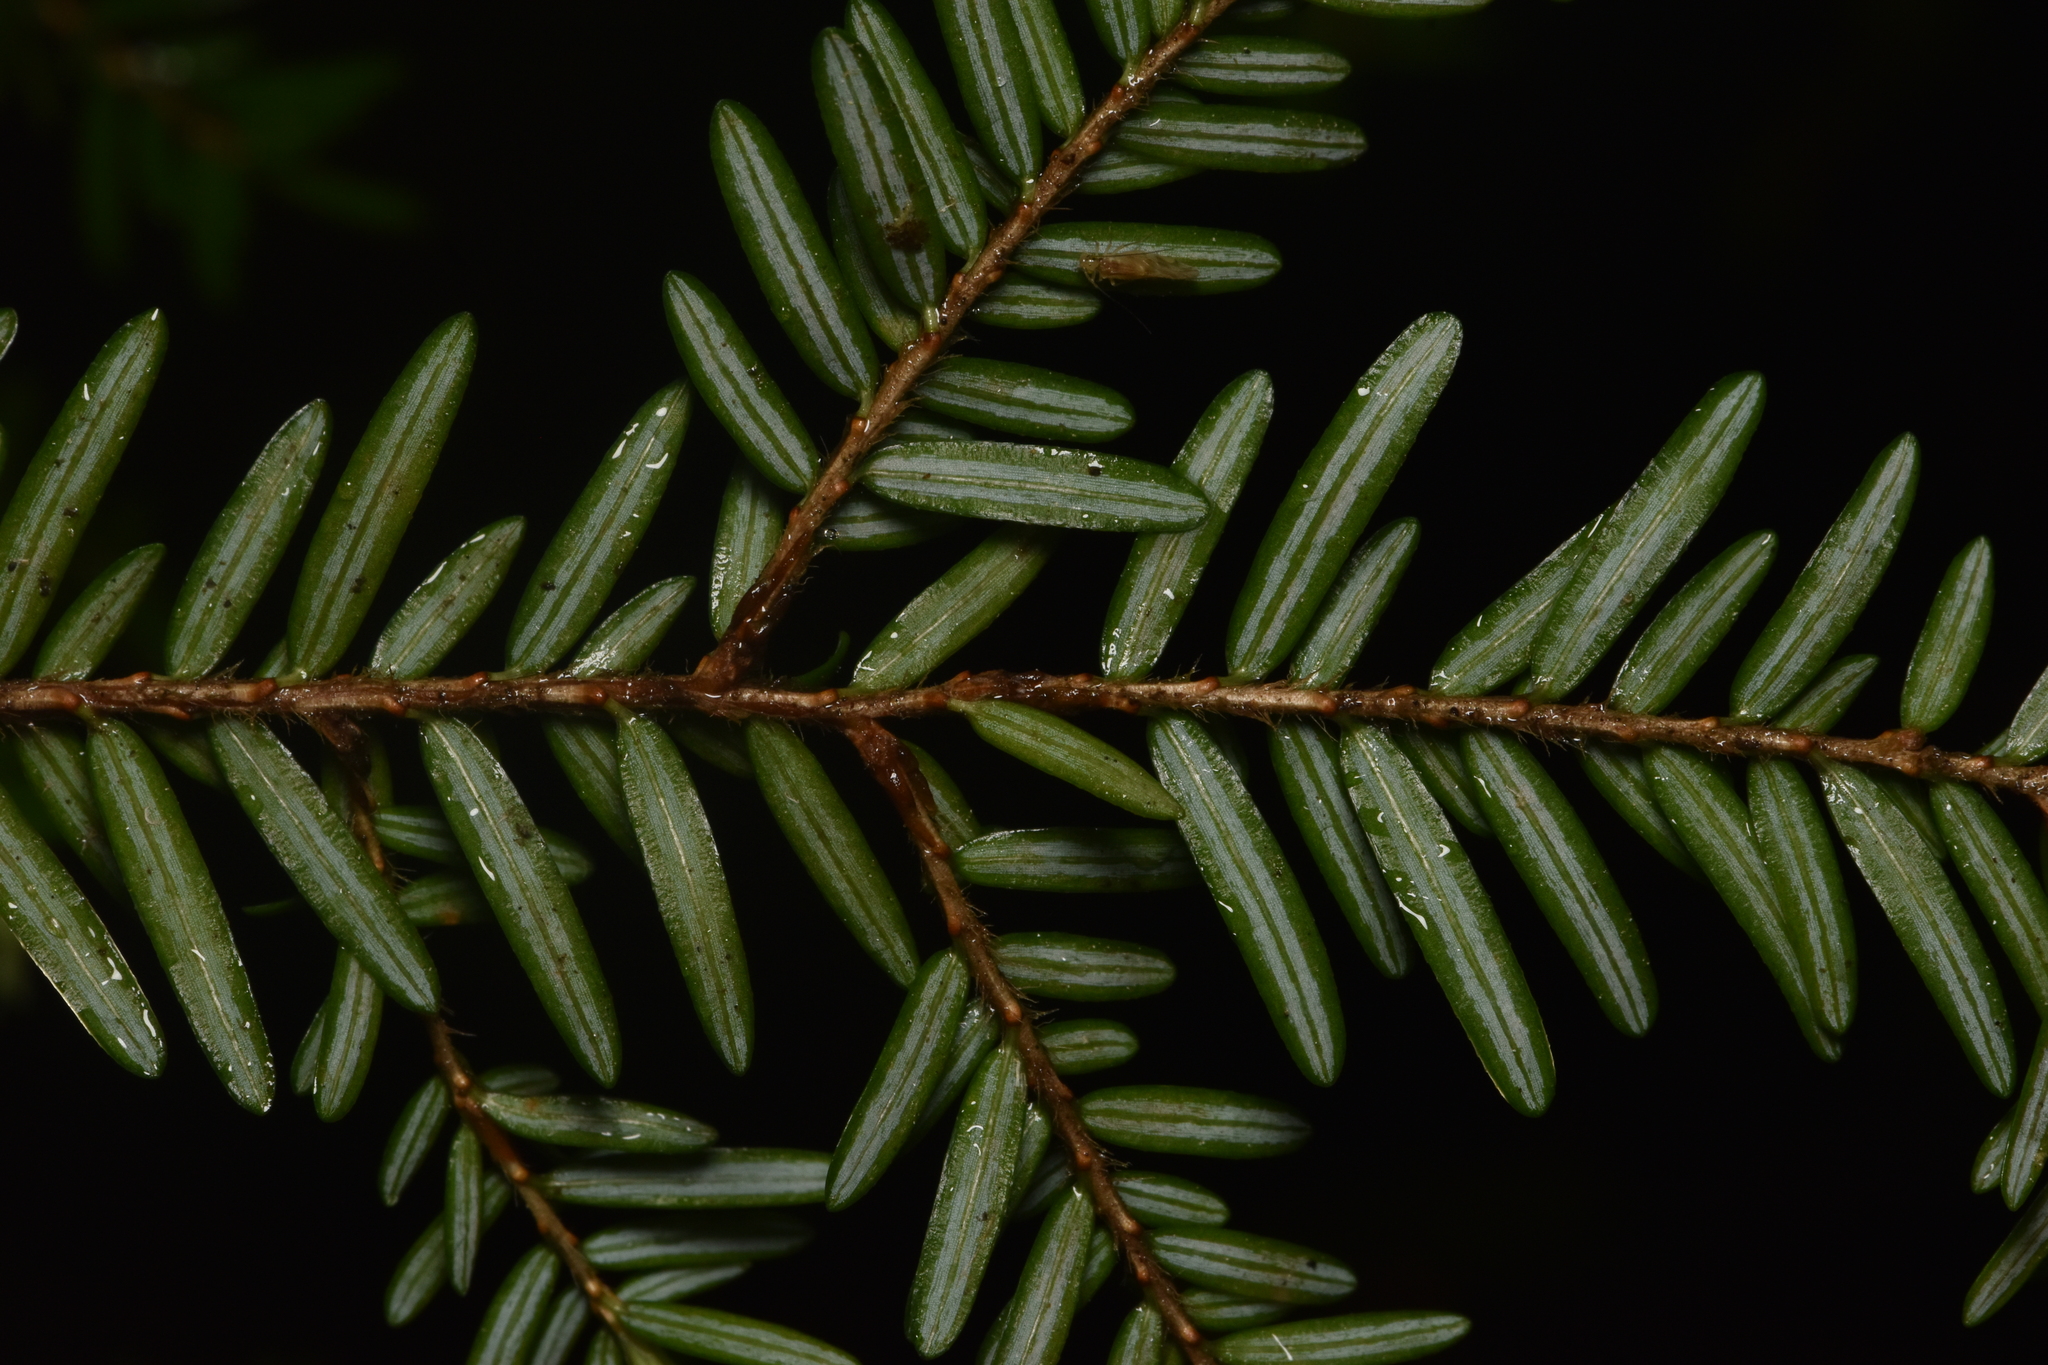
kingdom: Plantae
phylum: Tracheophyta
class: Pinopsida
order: Pinales
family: Pinaceae
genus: Tsuga
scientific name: Tsuga heterophylla
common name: Western hemlock
